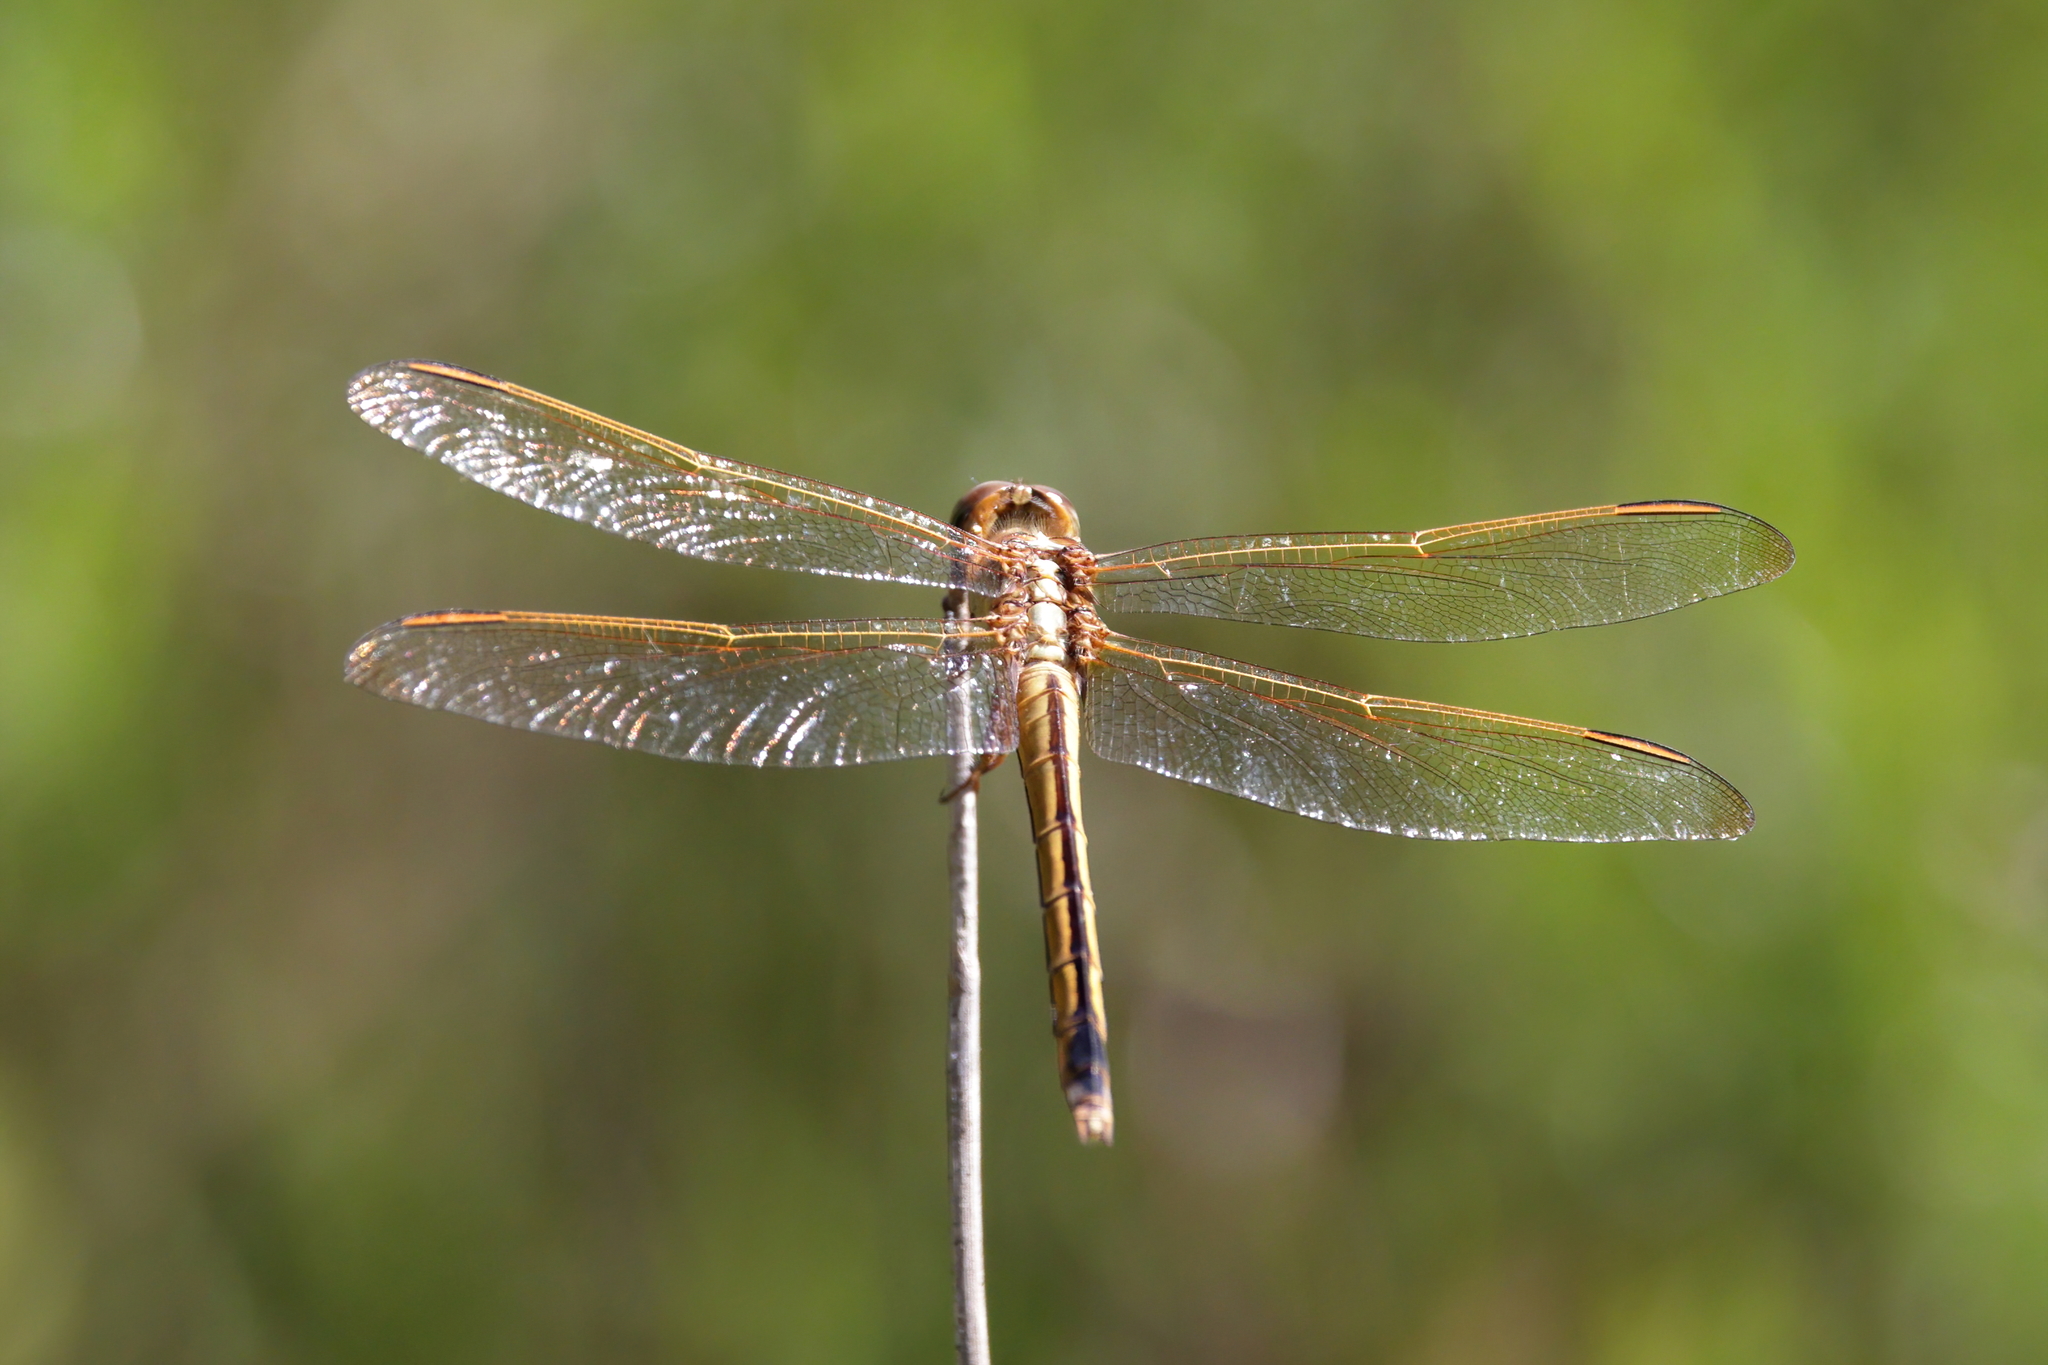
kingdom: Animalia
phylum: Arthropoda
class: Insecta
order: Odonata
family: Libellulidae
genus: Libellula
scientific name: Libellula needhami
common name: Needham's skimmer
